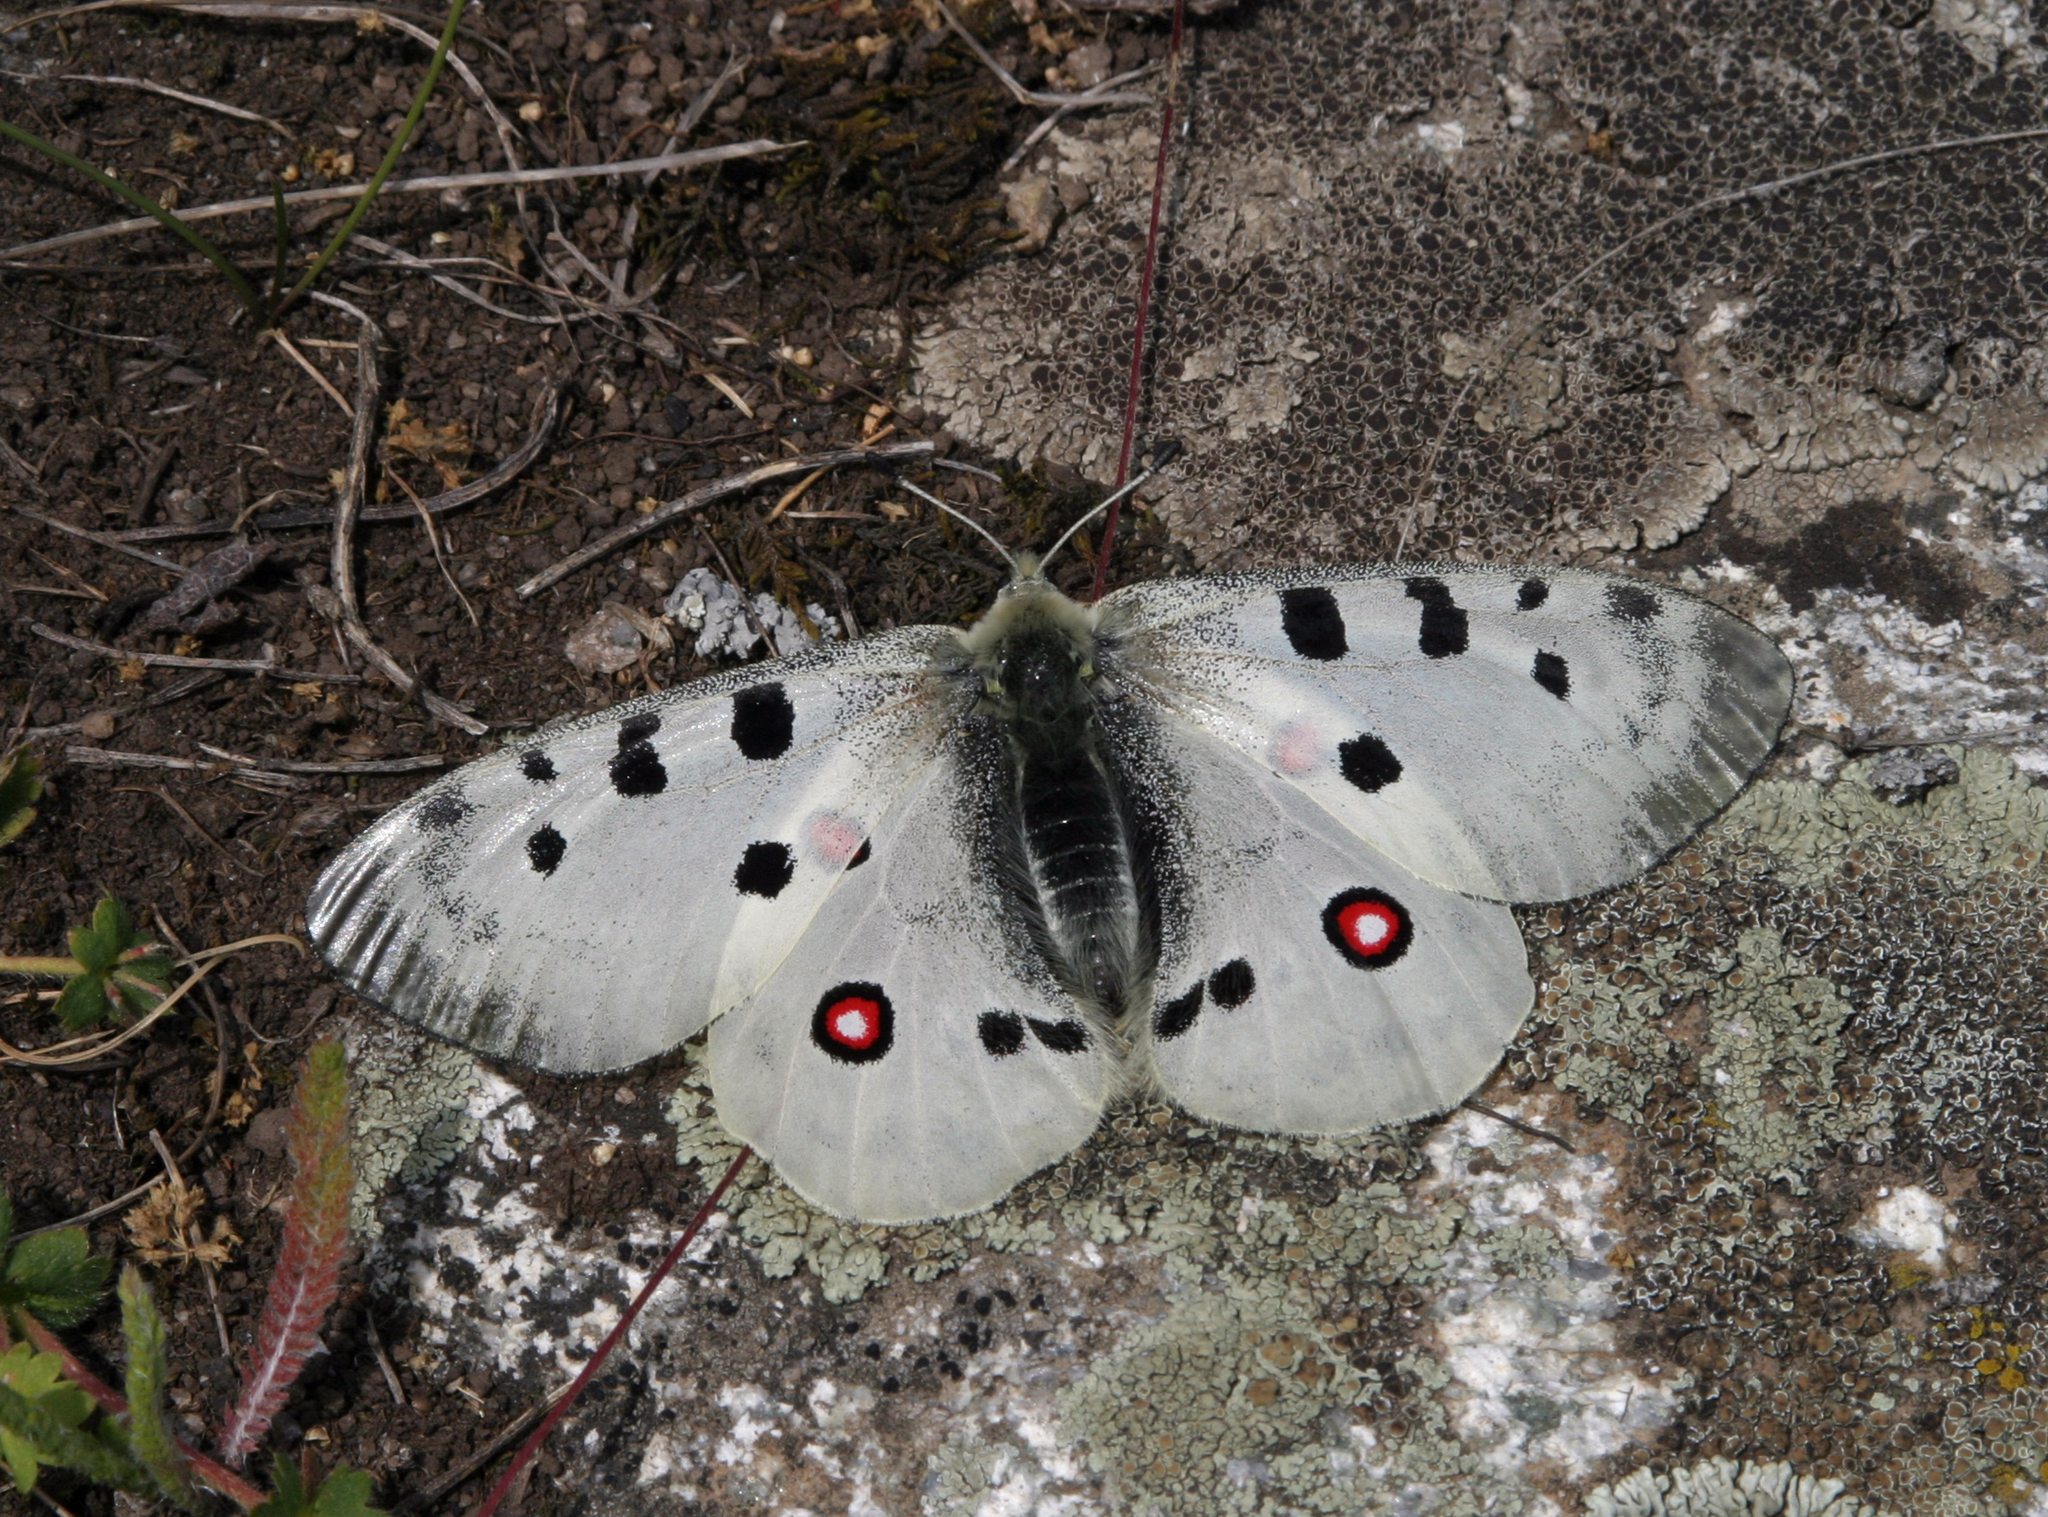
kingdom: Animalia
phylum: Arthropoda
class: Insecta
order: Lepidoptera
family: Papilionidae
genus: Parnassius
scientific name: Parnassius apollo
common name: Apollo
